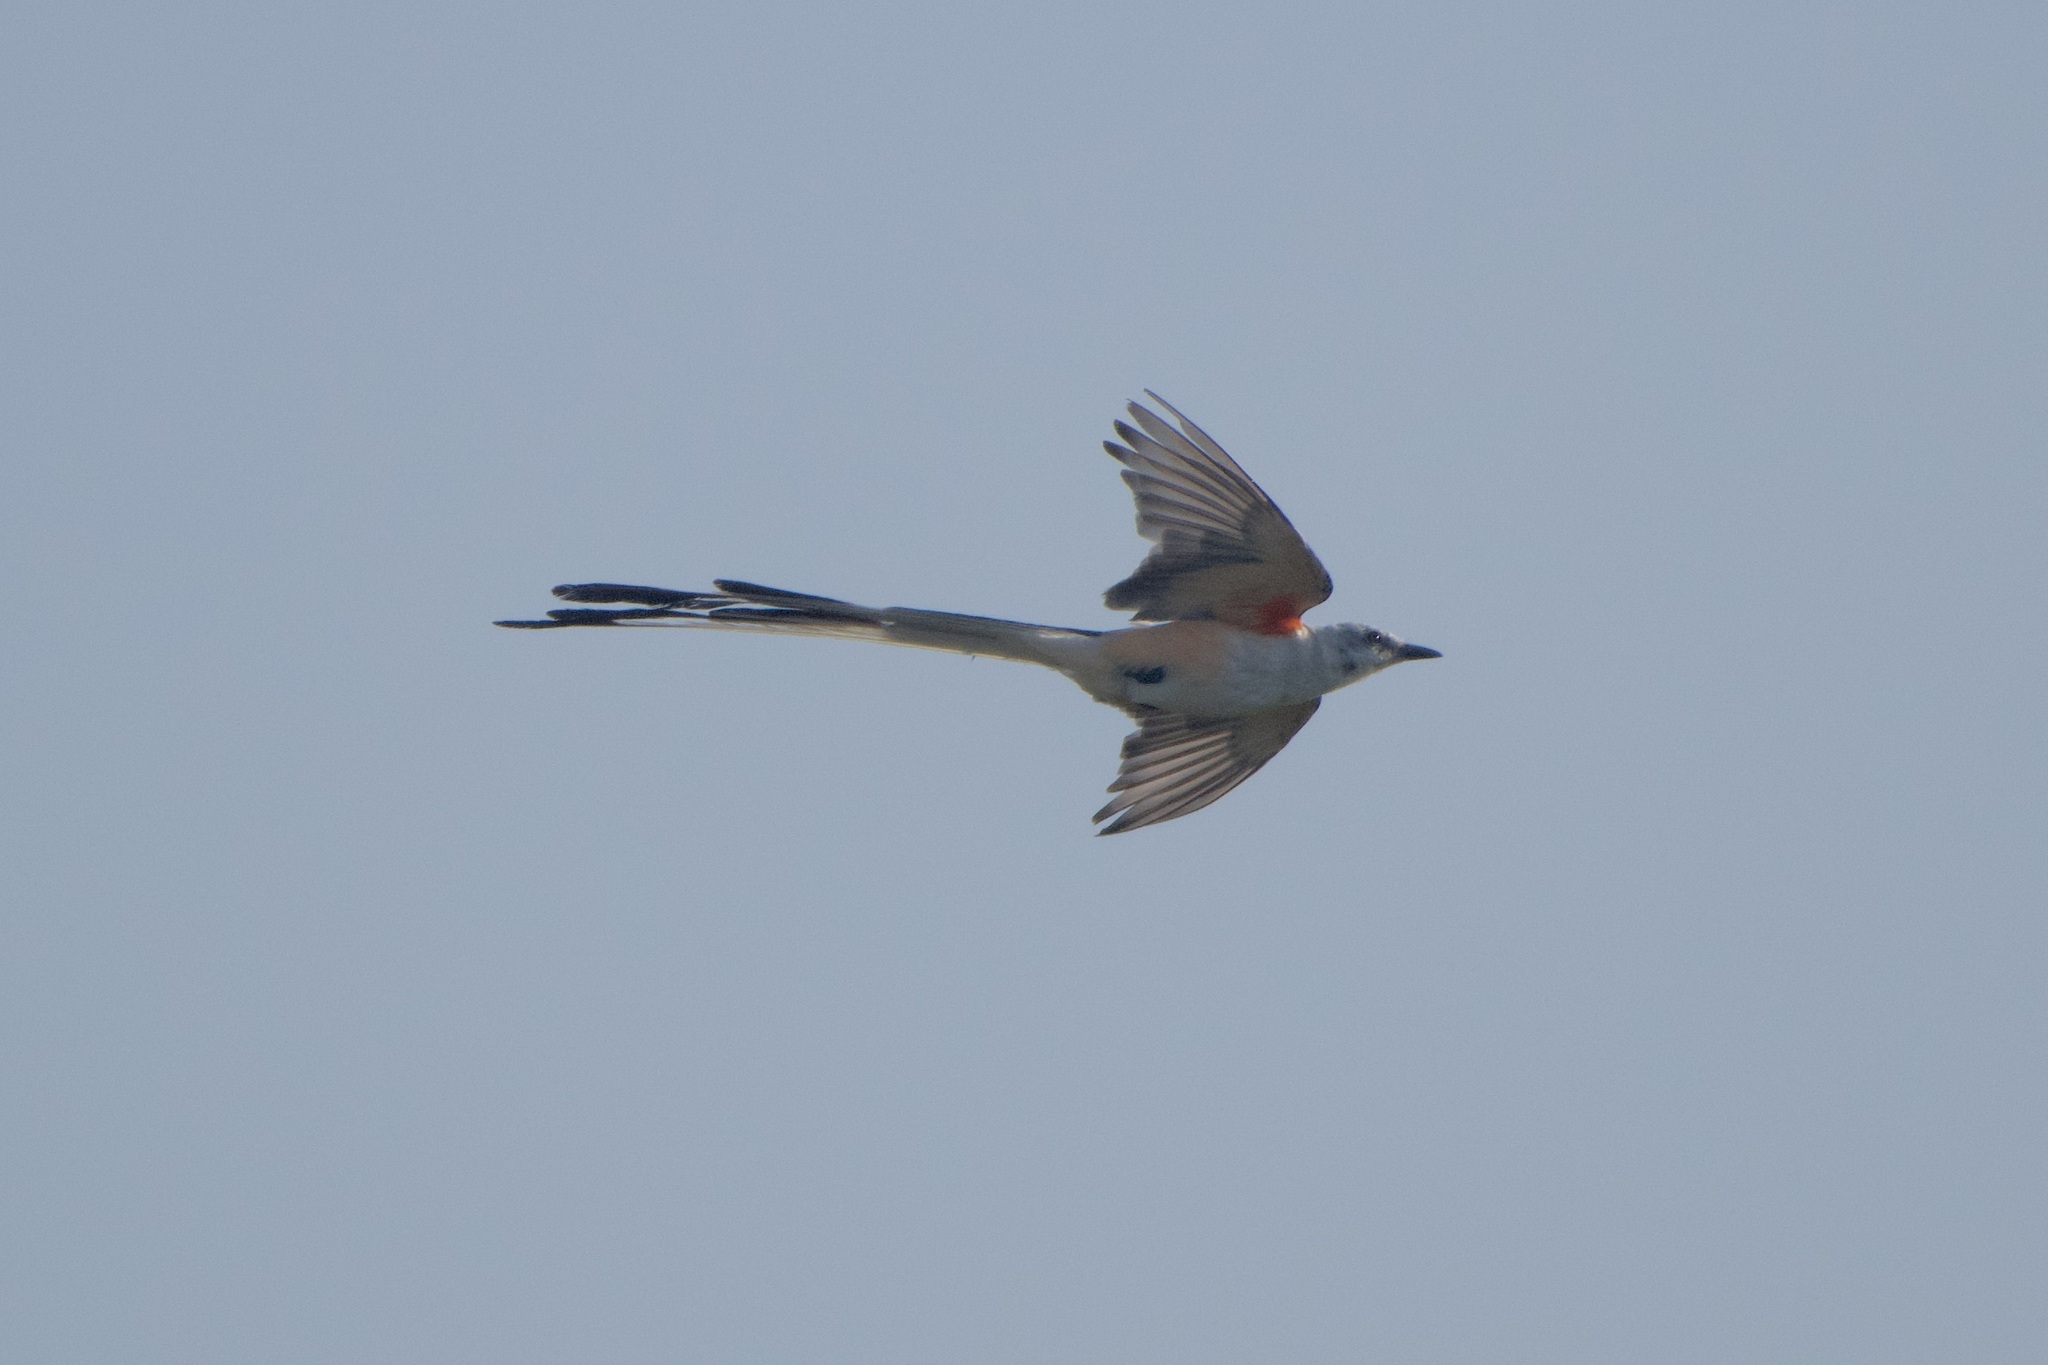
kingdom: Animalia
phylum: Chordata
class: Aves
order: Passeriformes
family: Tyrannidae
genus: Tyrannus
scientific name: Tyrannus forficatus
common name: Scissor-tailed flycatcher
